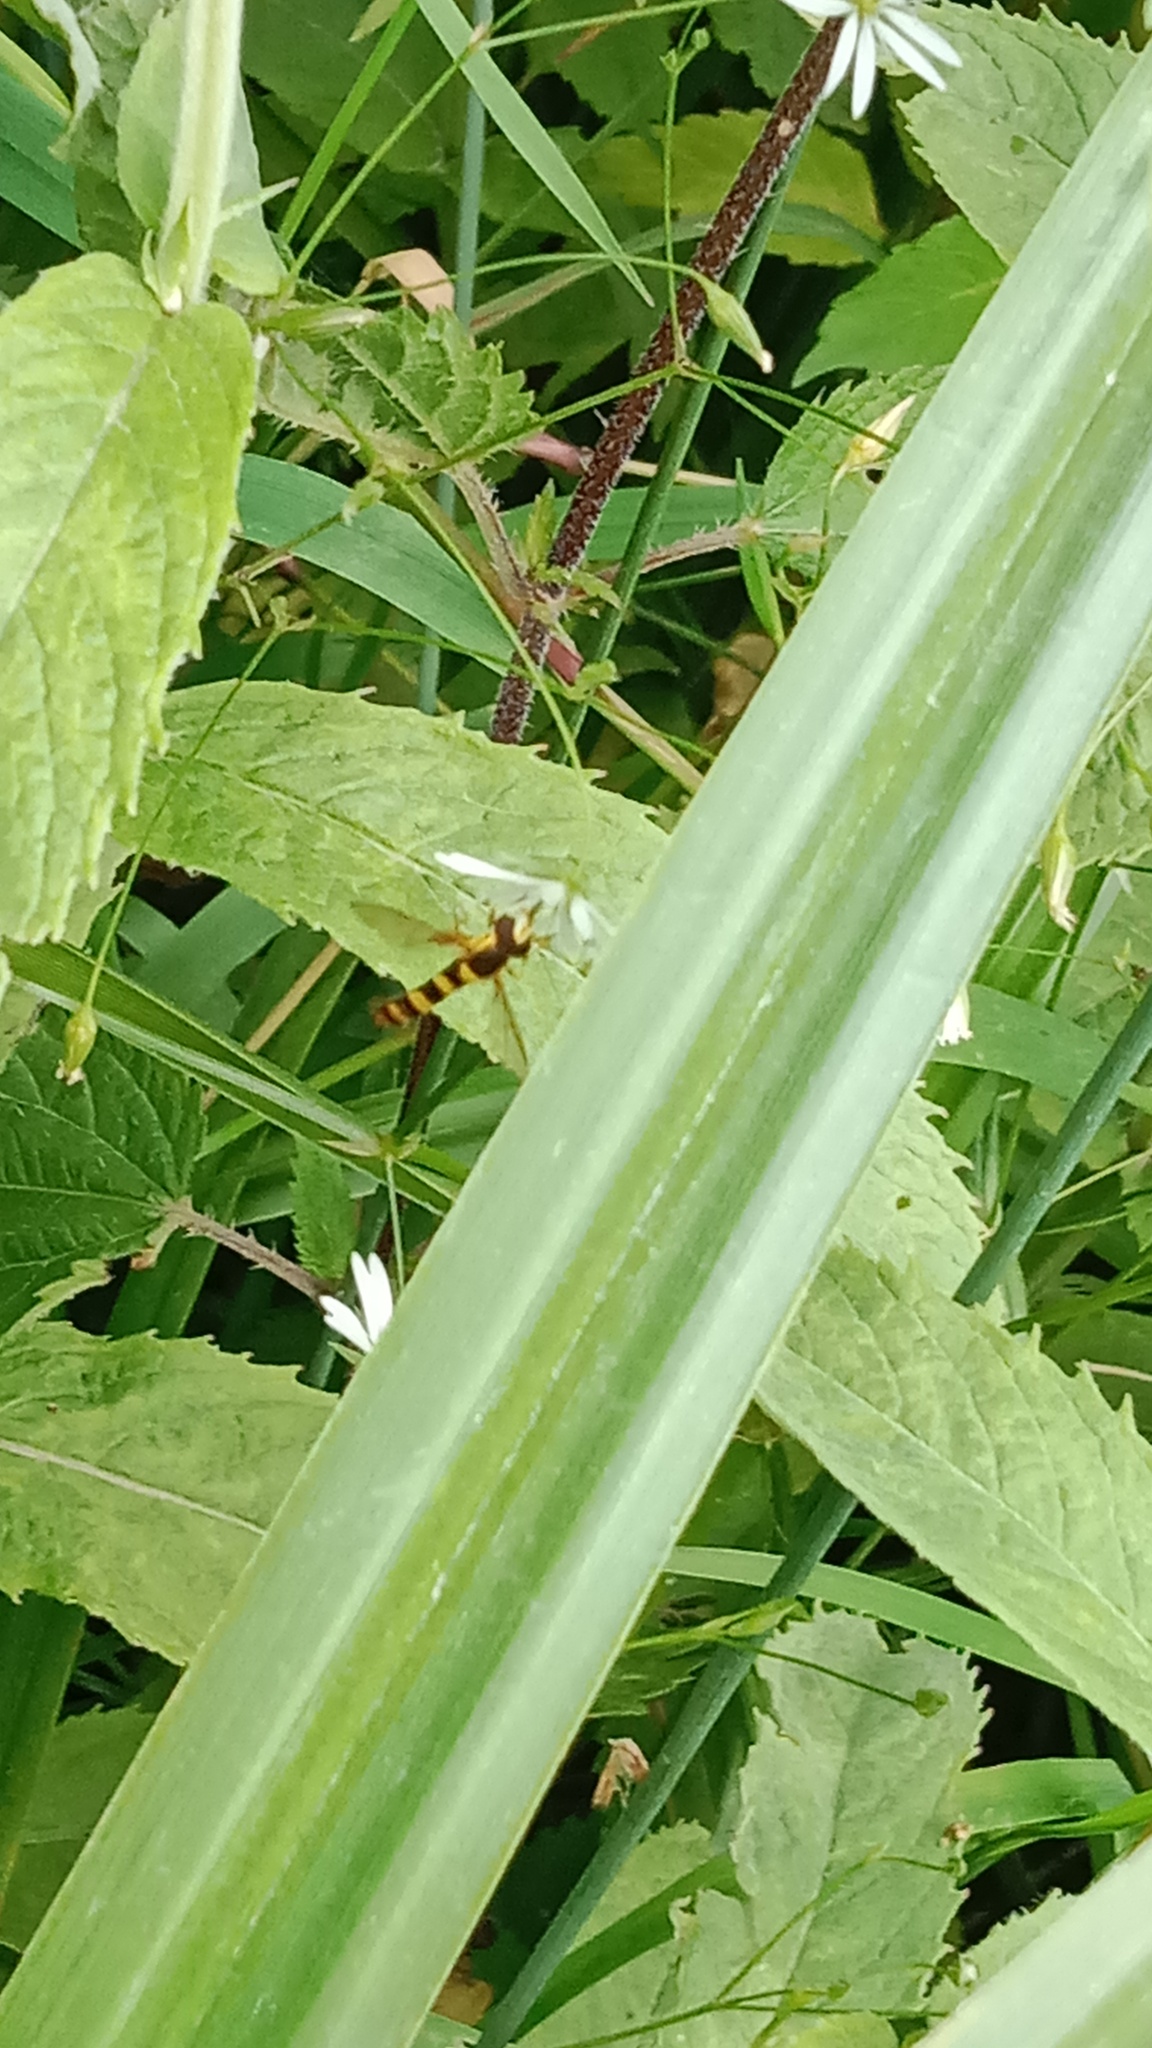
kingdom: Animalia
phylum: Arthropoda
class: Insecta
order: Diptera
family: Syrphidae
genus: Sphaerophoria
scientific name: Sphaerophoria scripta
